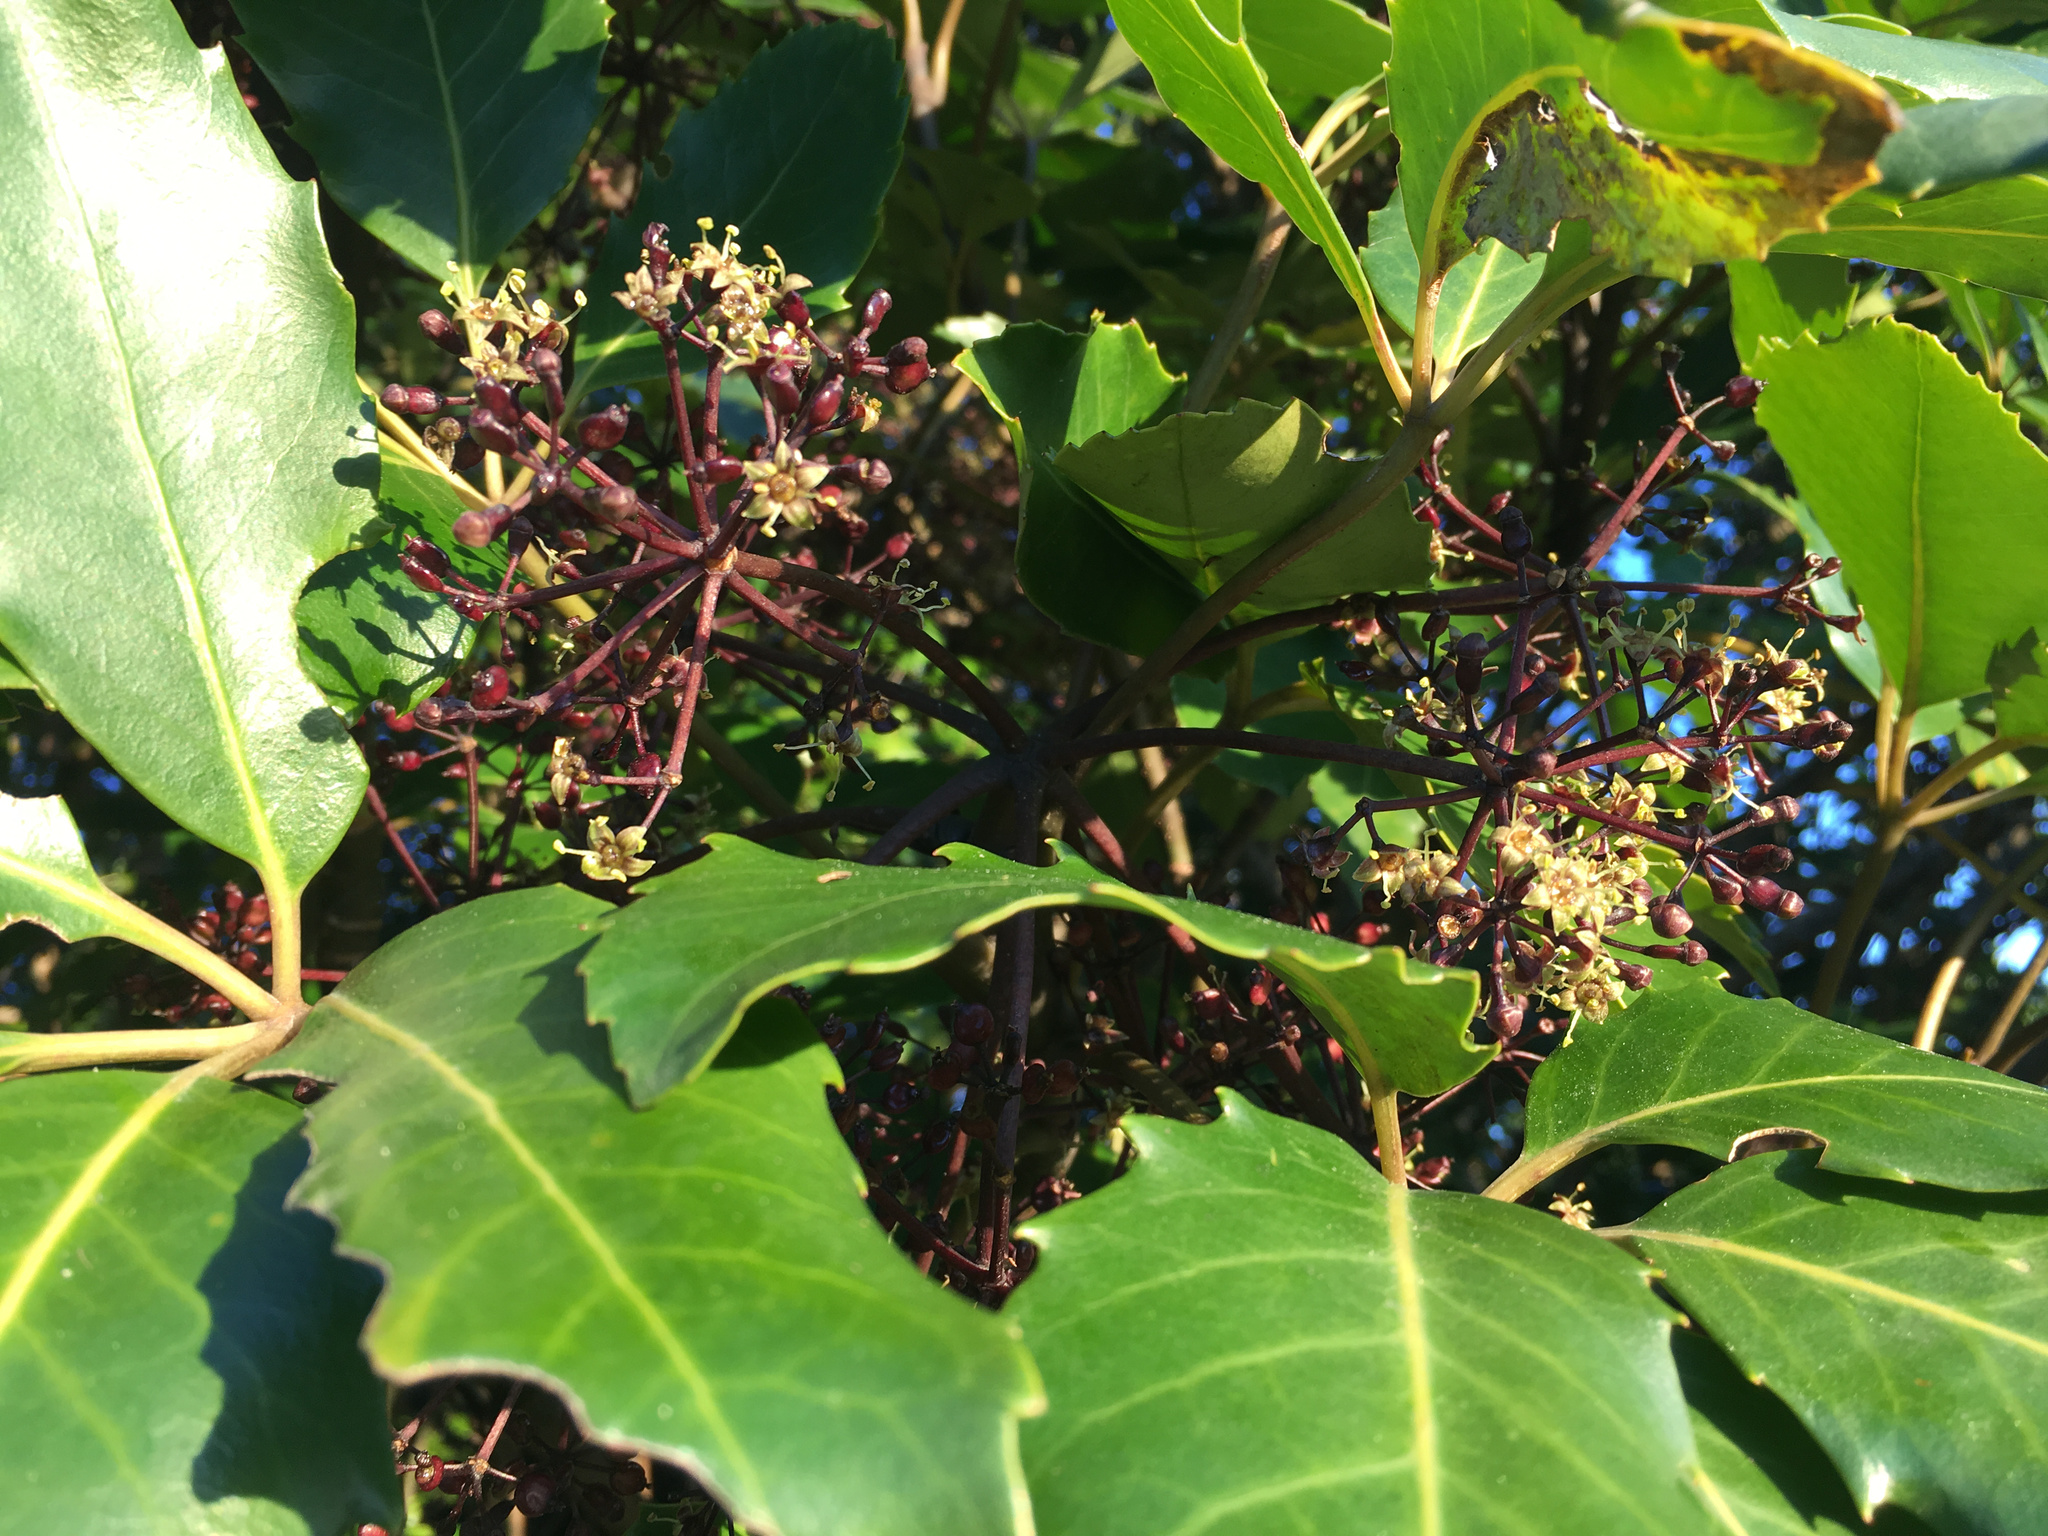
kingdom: Plantae
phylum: Tracheophyta
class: Magnoliopsida
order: Apiales
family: Araliaceae
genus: Neopanax
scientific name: Neopanax arboreus
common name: Five-fingers
